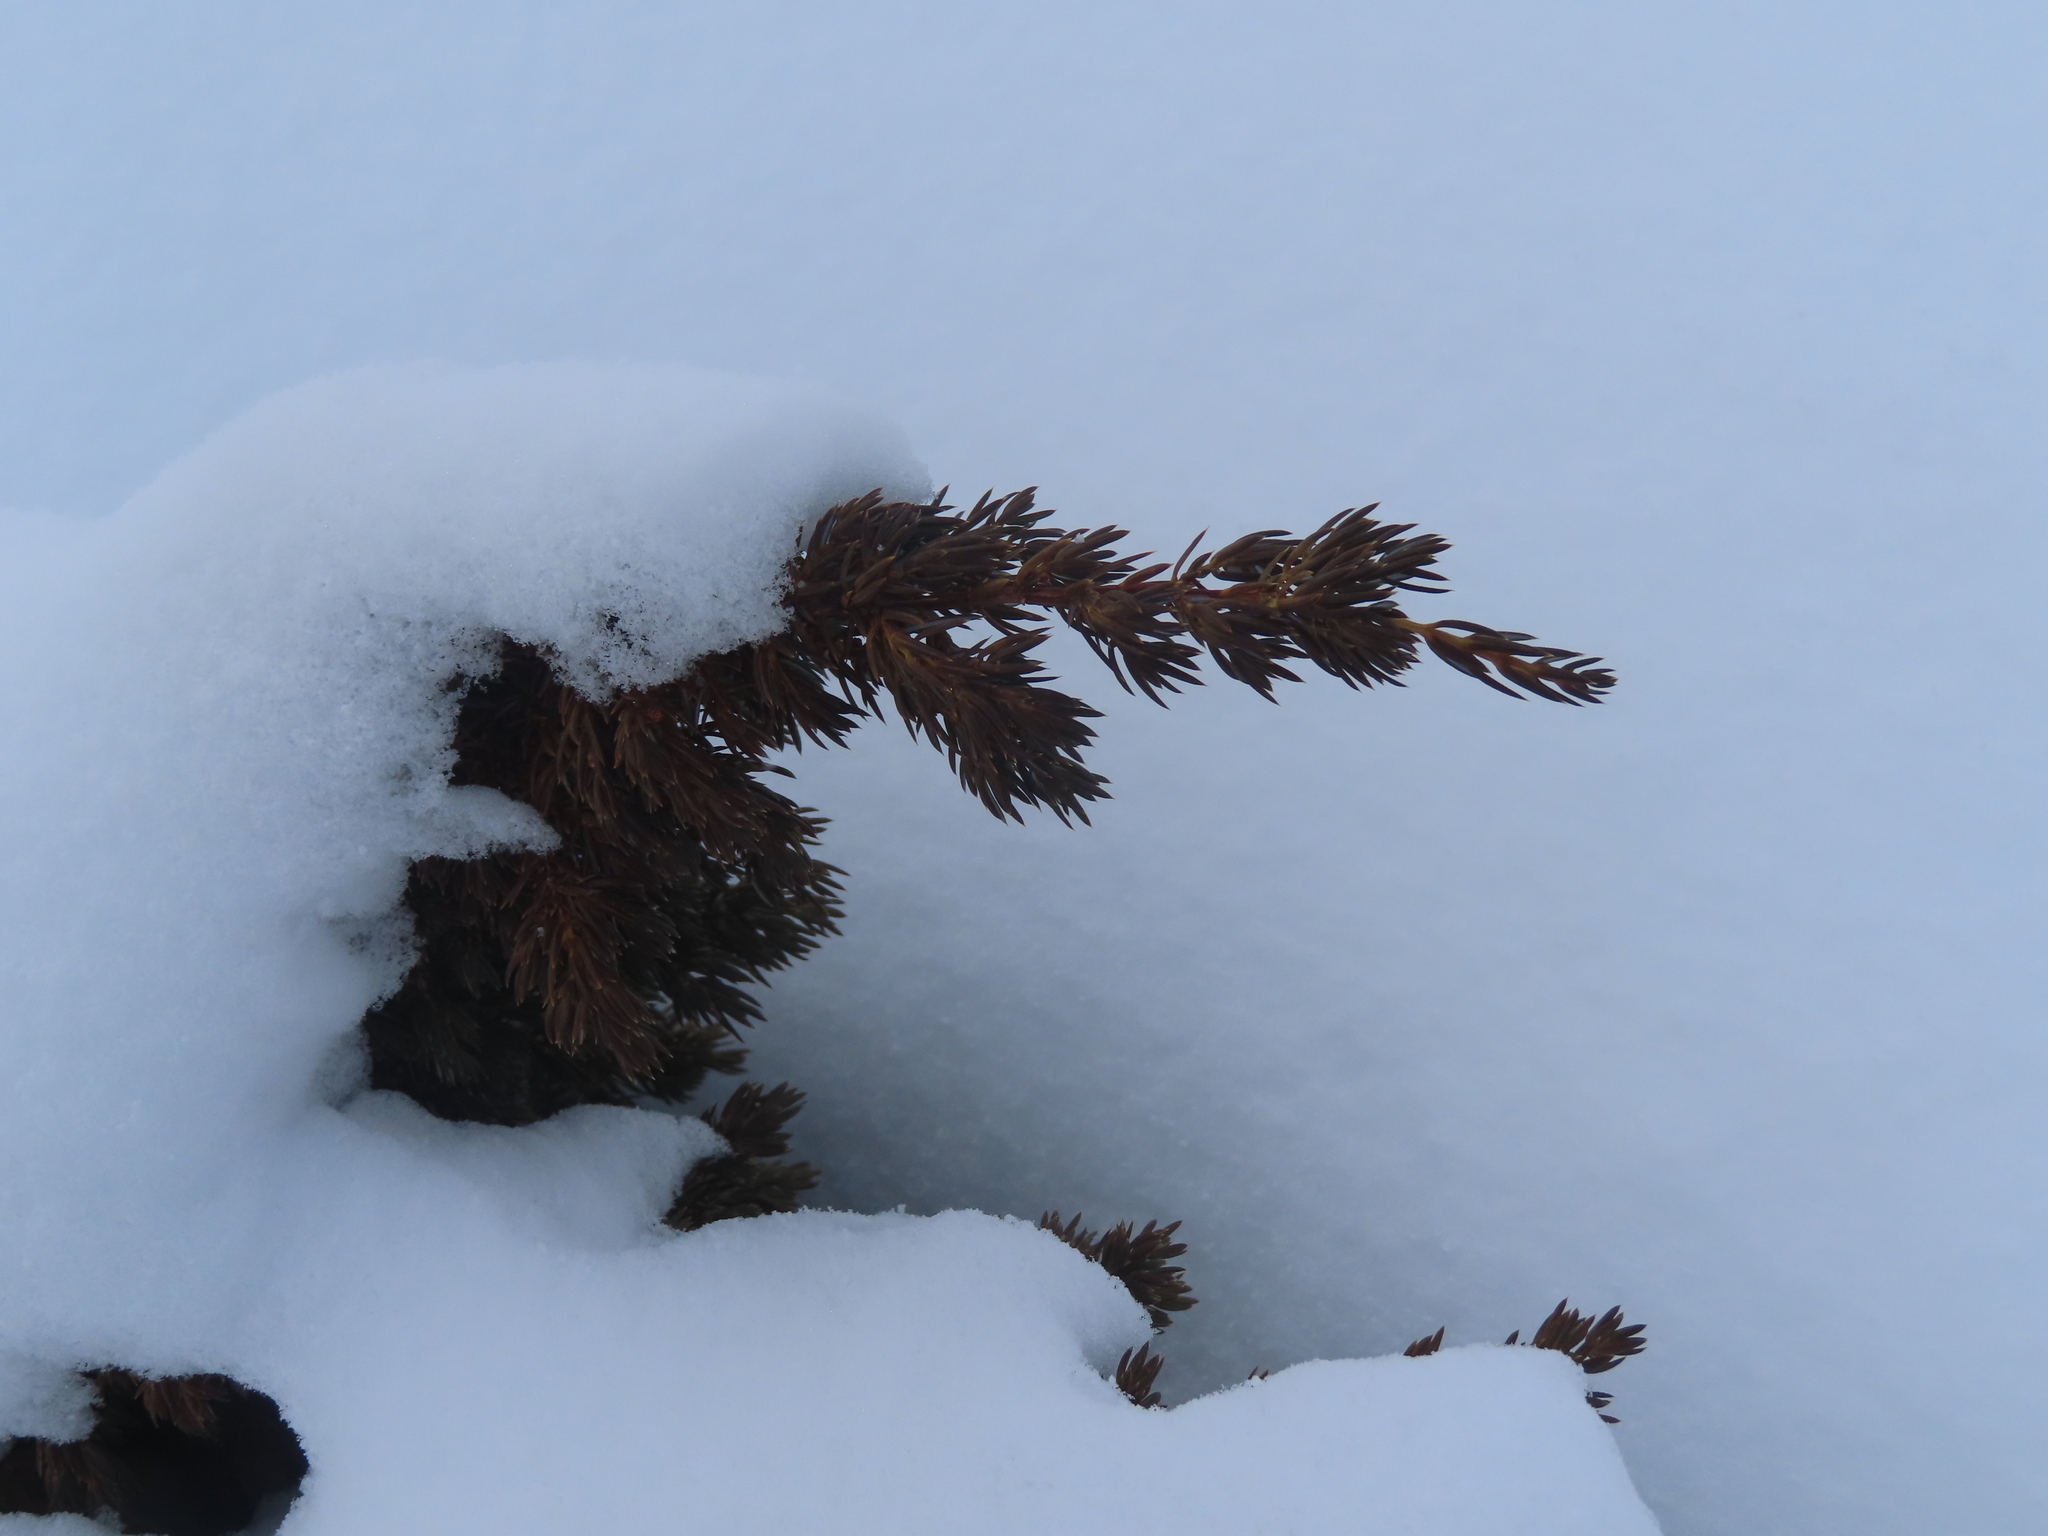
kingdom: Plantae
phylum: Tracheophyta
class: Pinopsida
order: Pinales
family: Cupressaceae
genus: Juniperus
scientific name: Juniperus communis
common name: Common juniper
